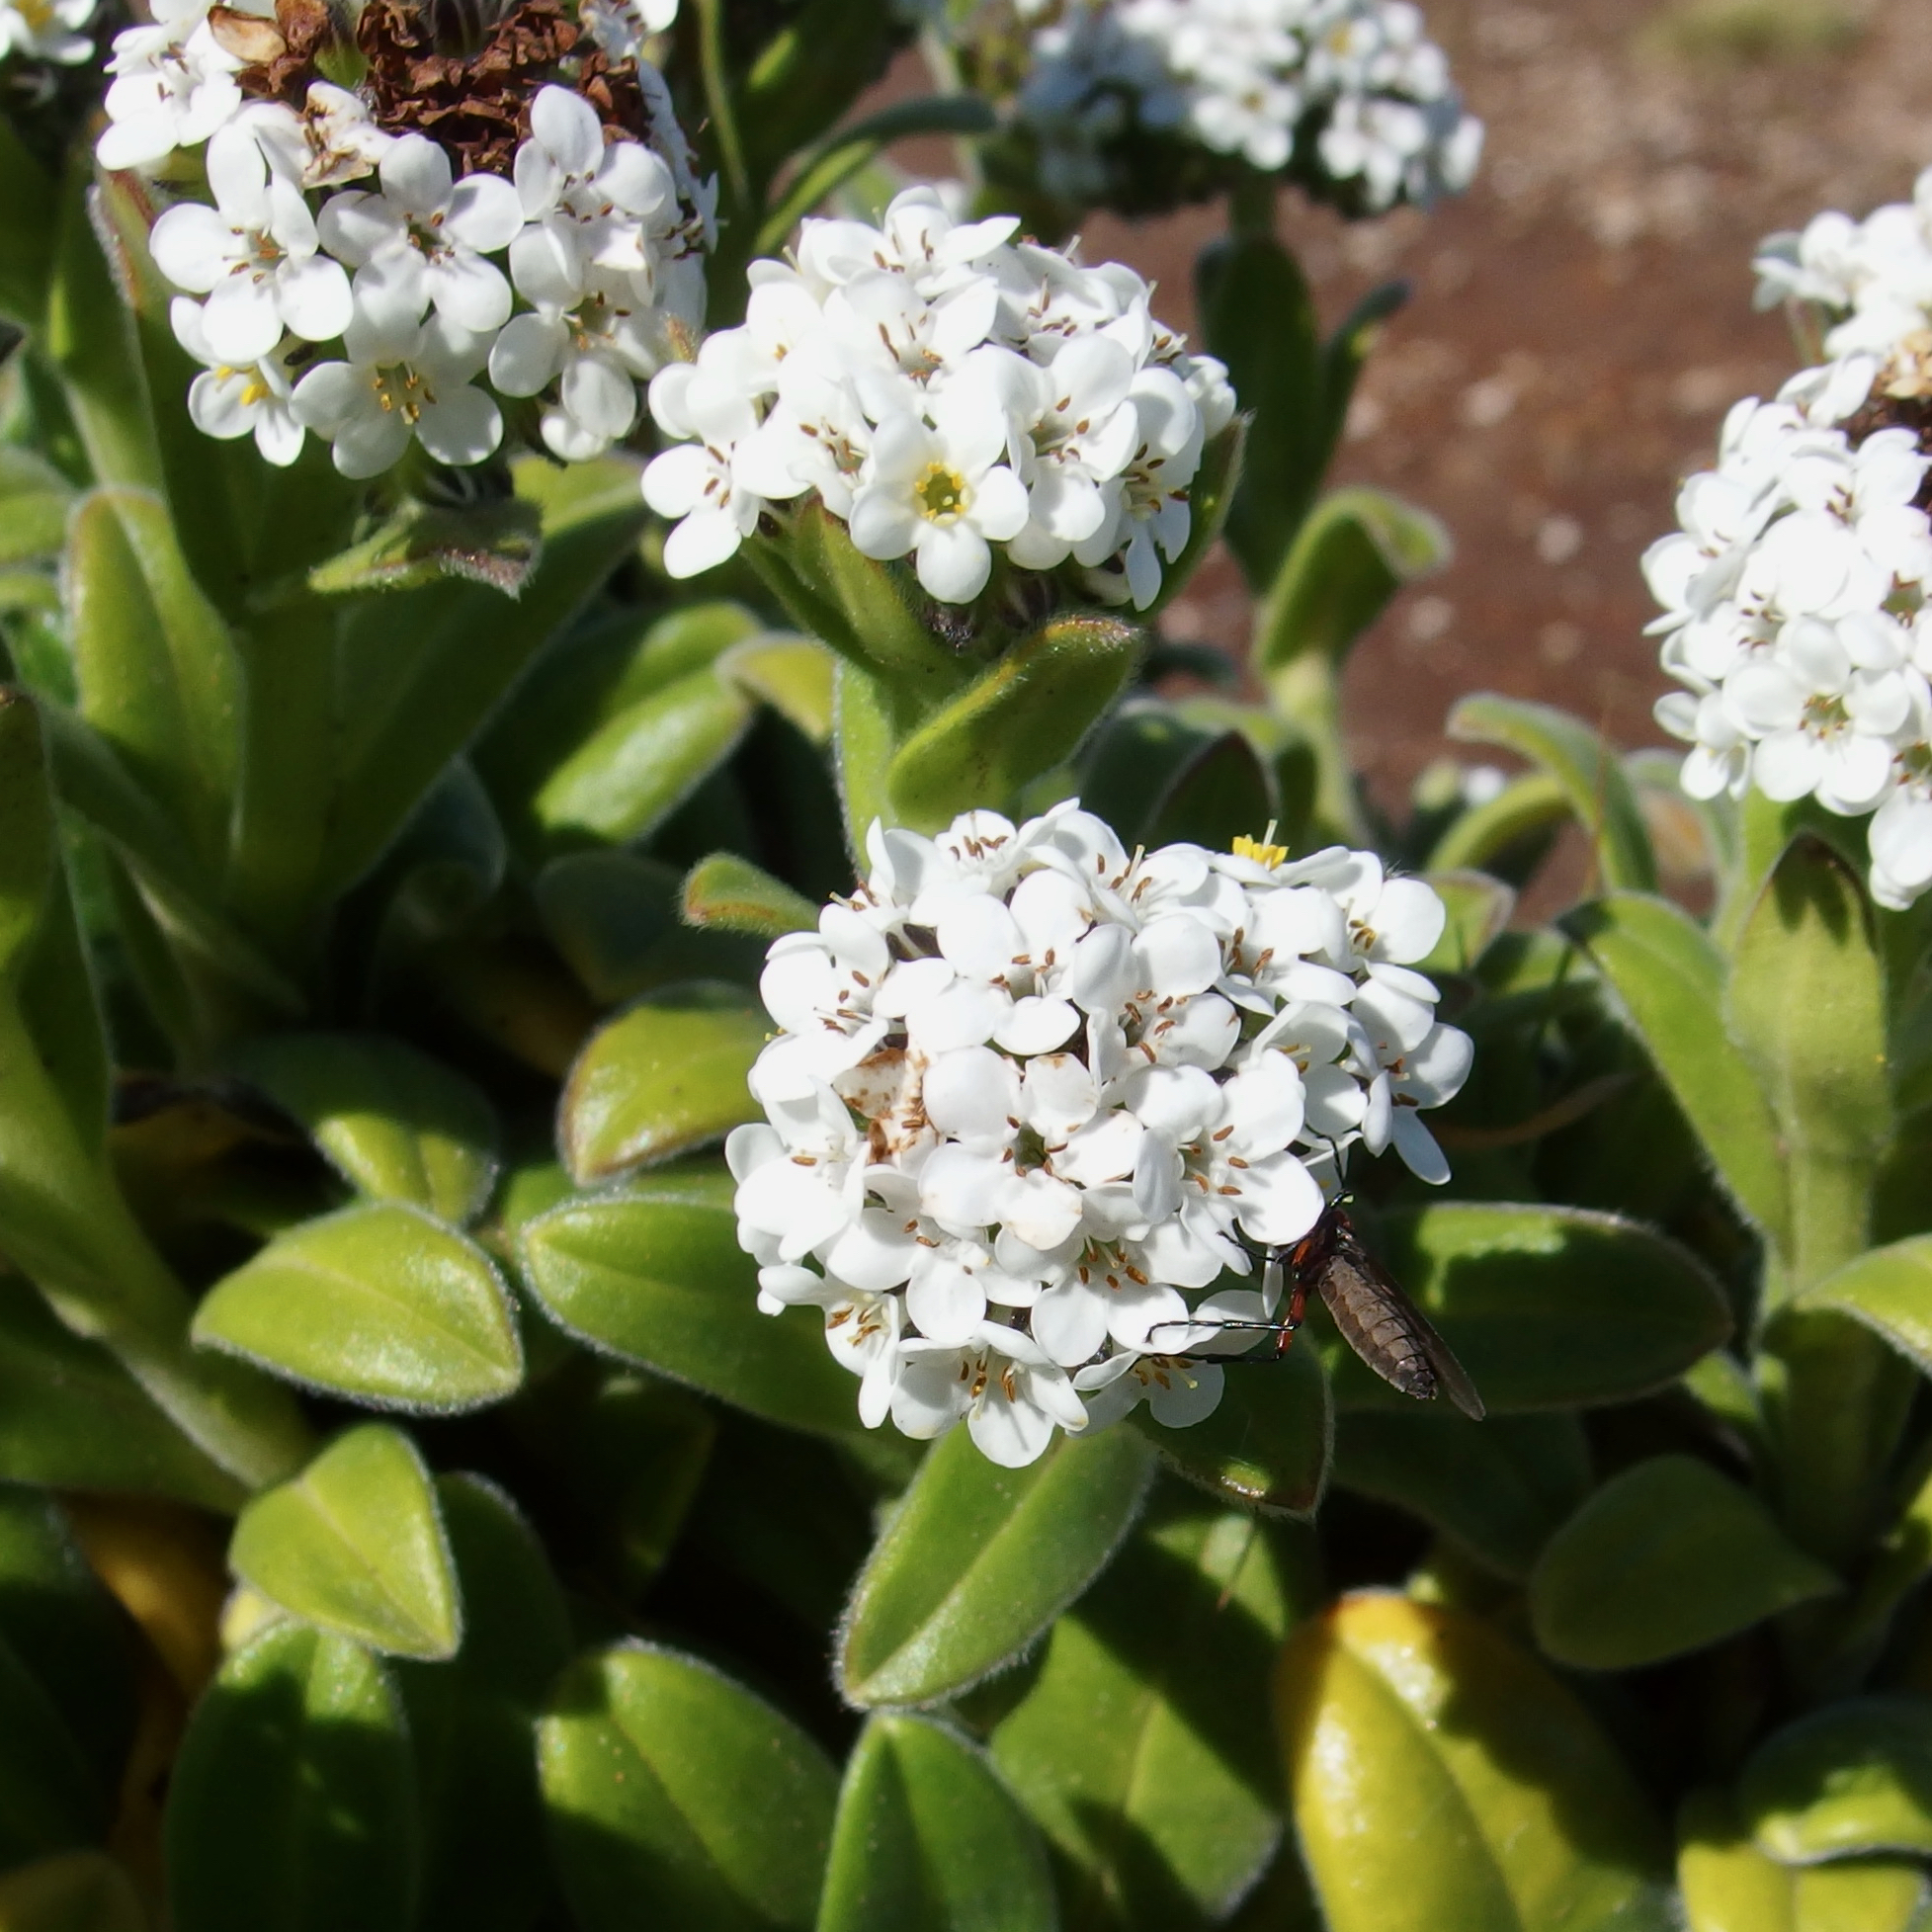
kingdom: Plantae
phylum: Tracheophyta
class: Magnoliopsida
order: Boraginales
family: Boraginaceae
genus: Myosotis
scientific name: Myosotis rakiura
